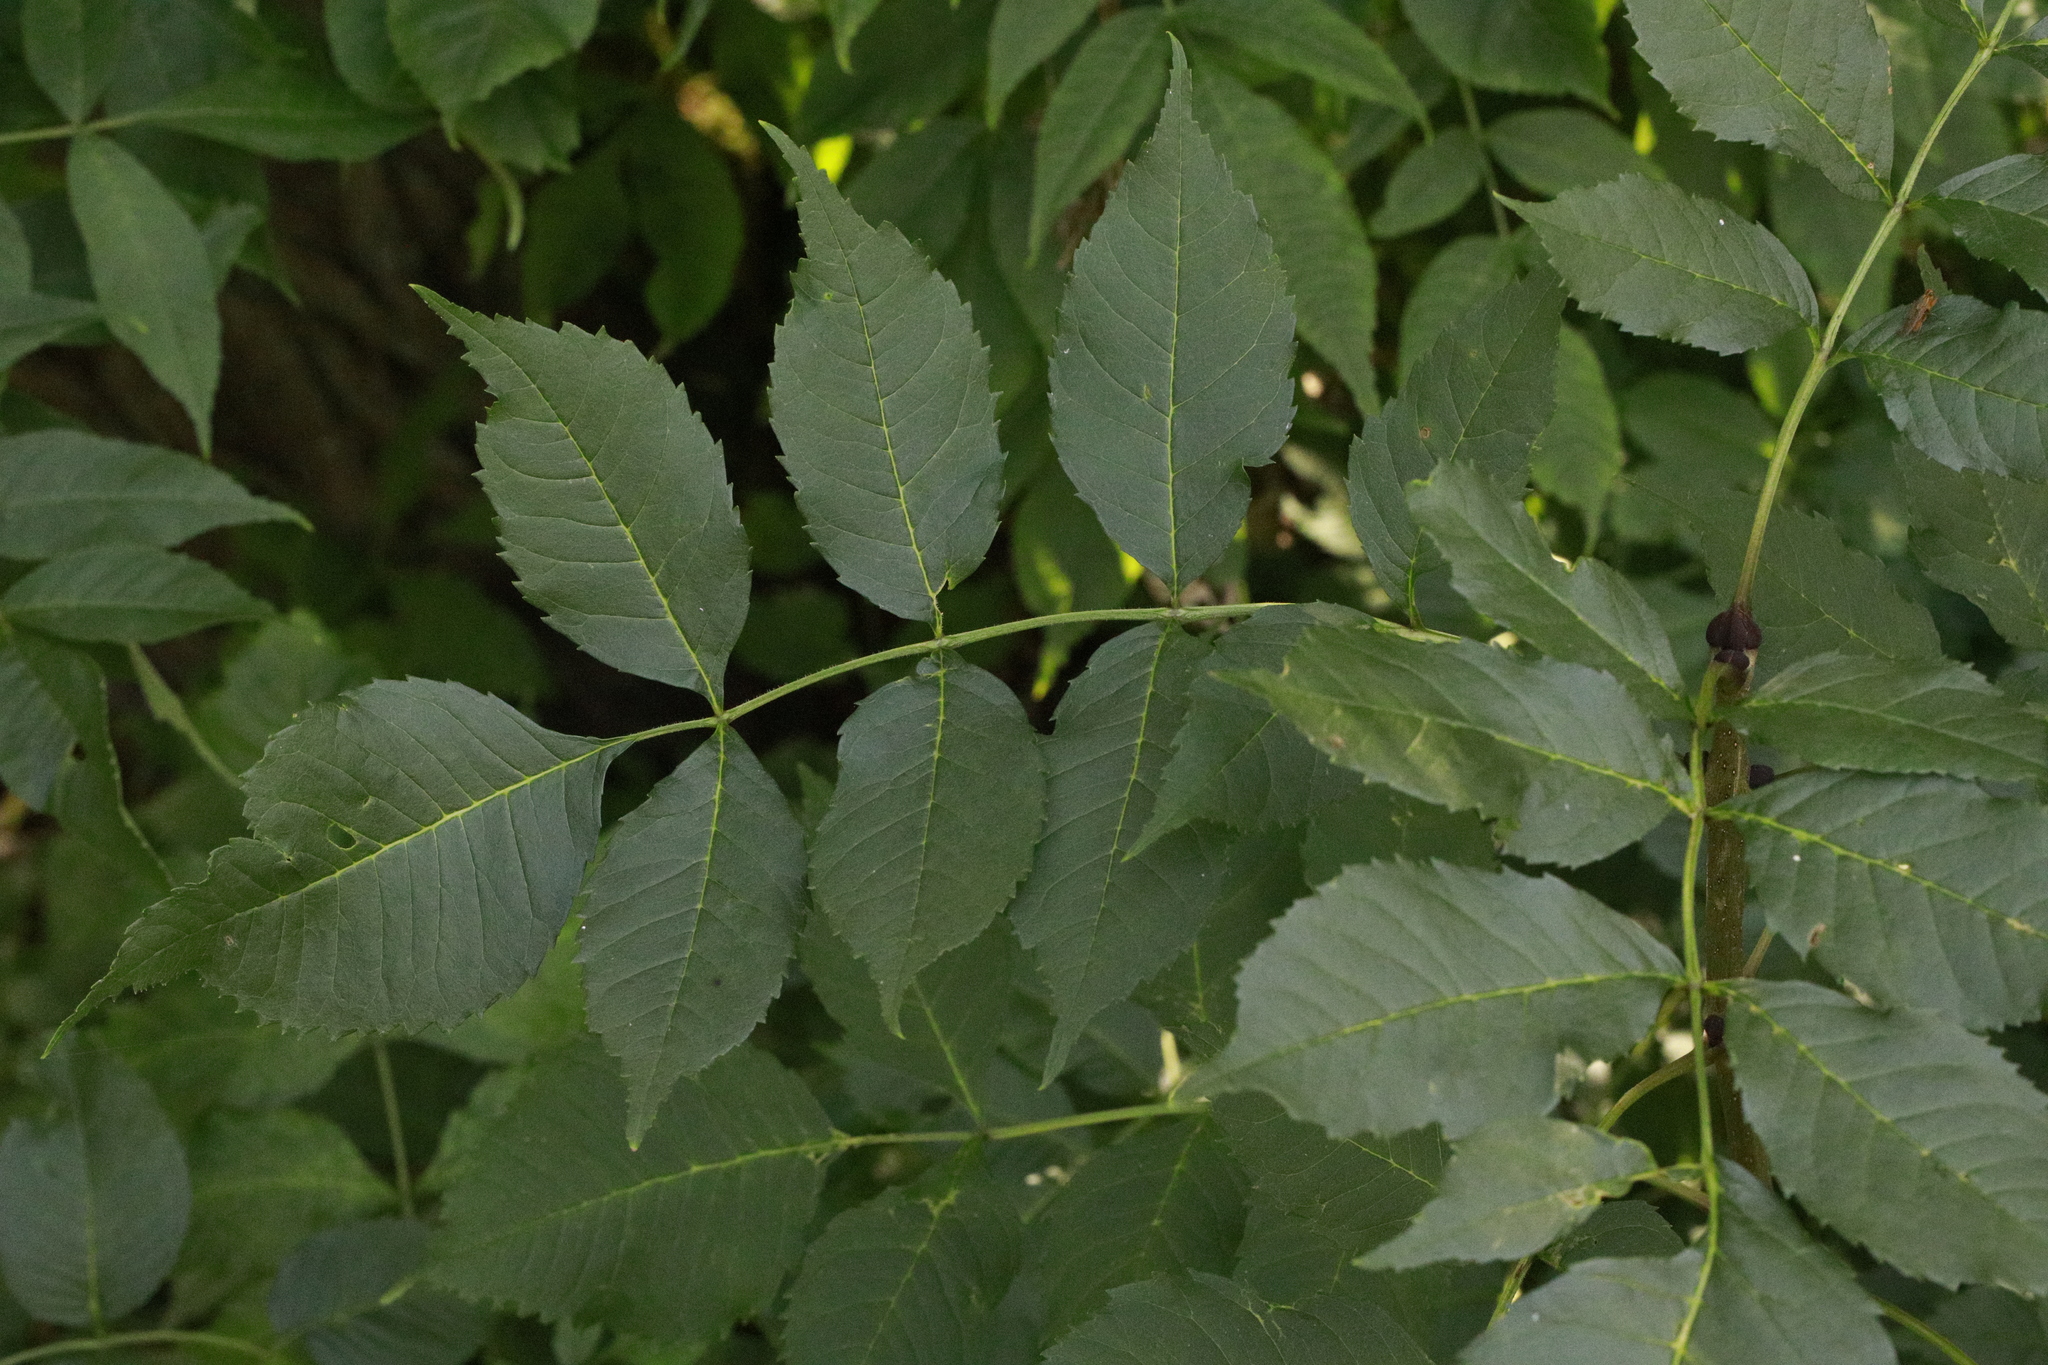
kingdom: Plantae
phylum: Tracheophyta
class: Magnoliopsida
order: Lamiales
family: Oleaceae
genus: Fraxinus
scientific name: Fraxinus excelsior
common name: European ash
